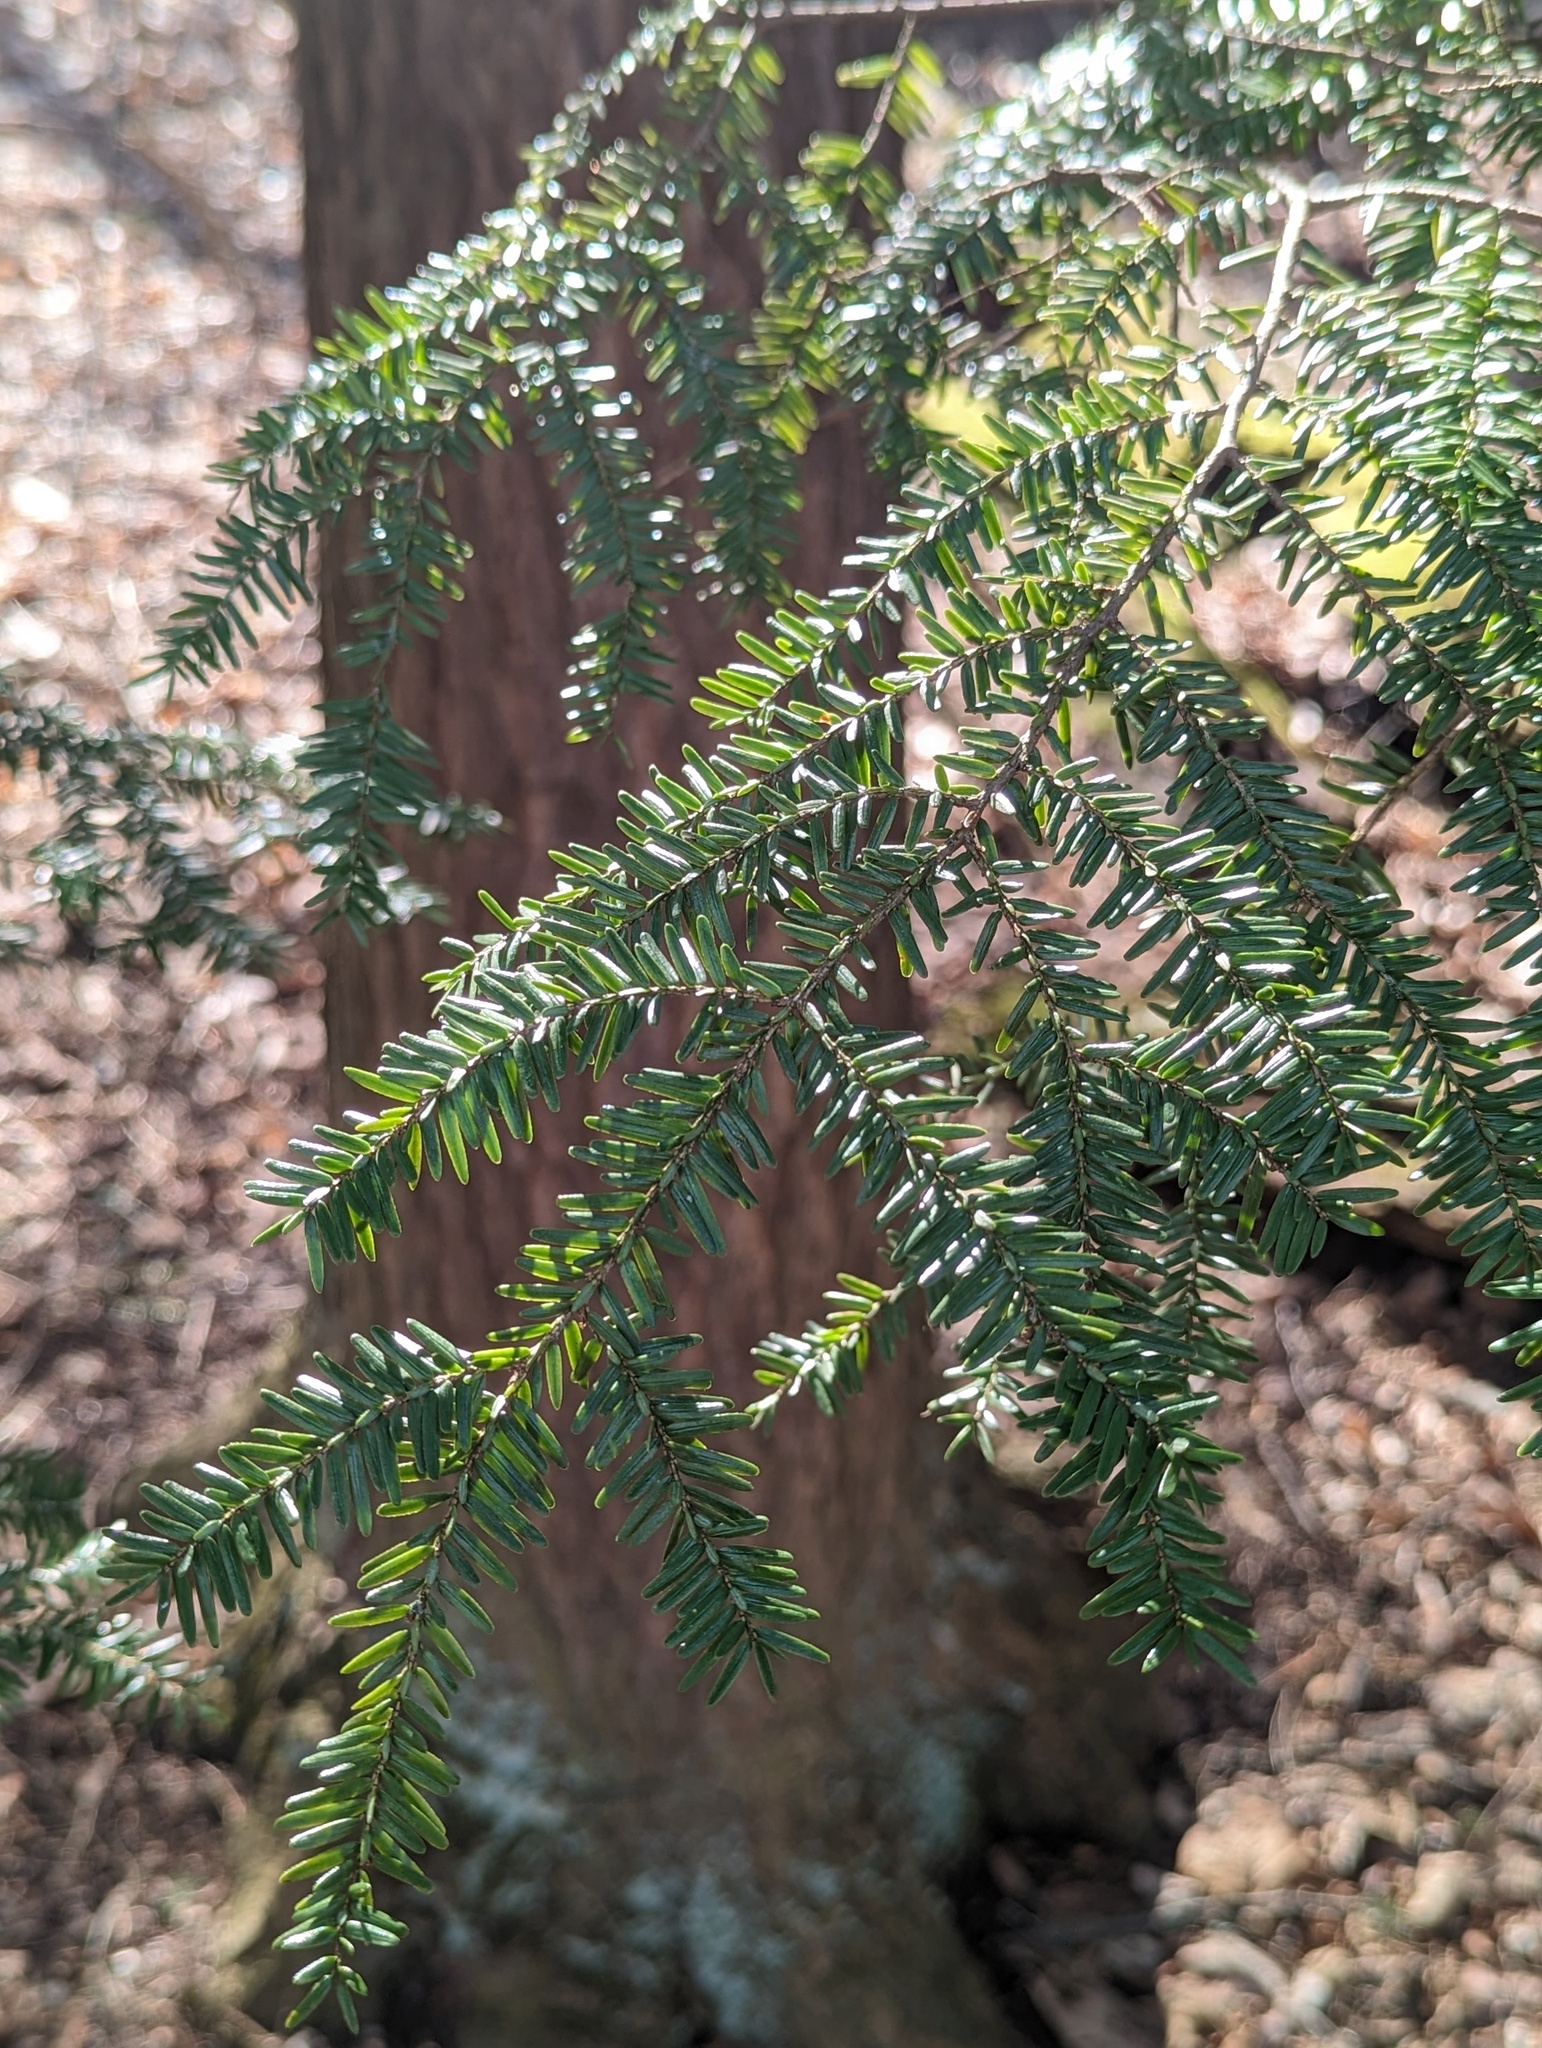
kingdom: Plantae
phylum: Tracheophyta
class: Pinopsida
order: Pinales
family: Pinaceae
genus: Tsuga
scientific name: Tsuga canadensis
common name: Eastern hemlock
